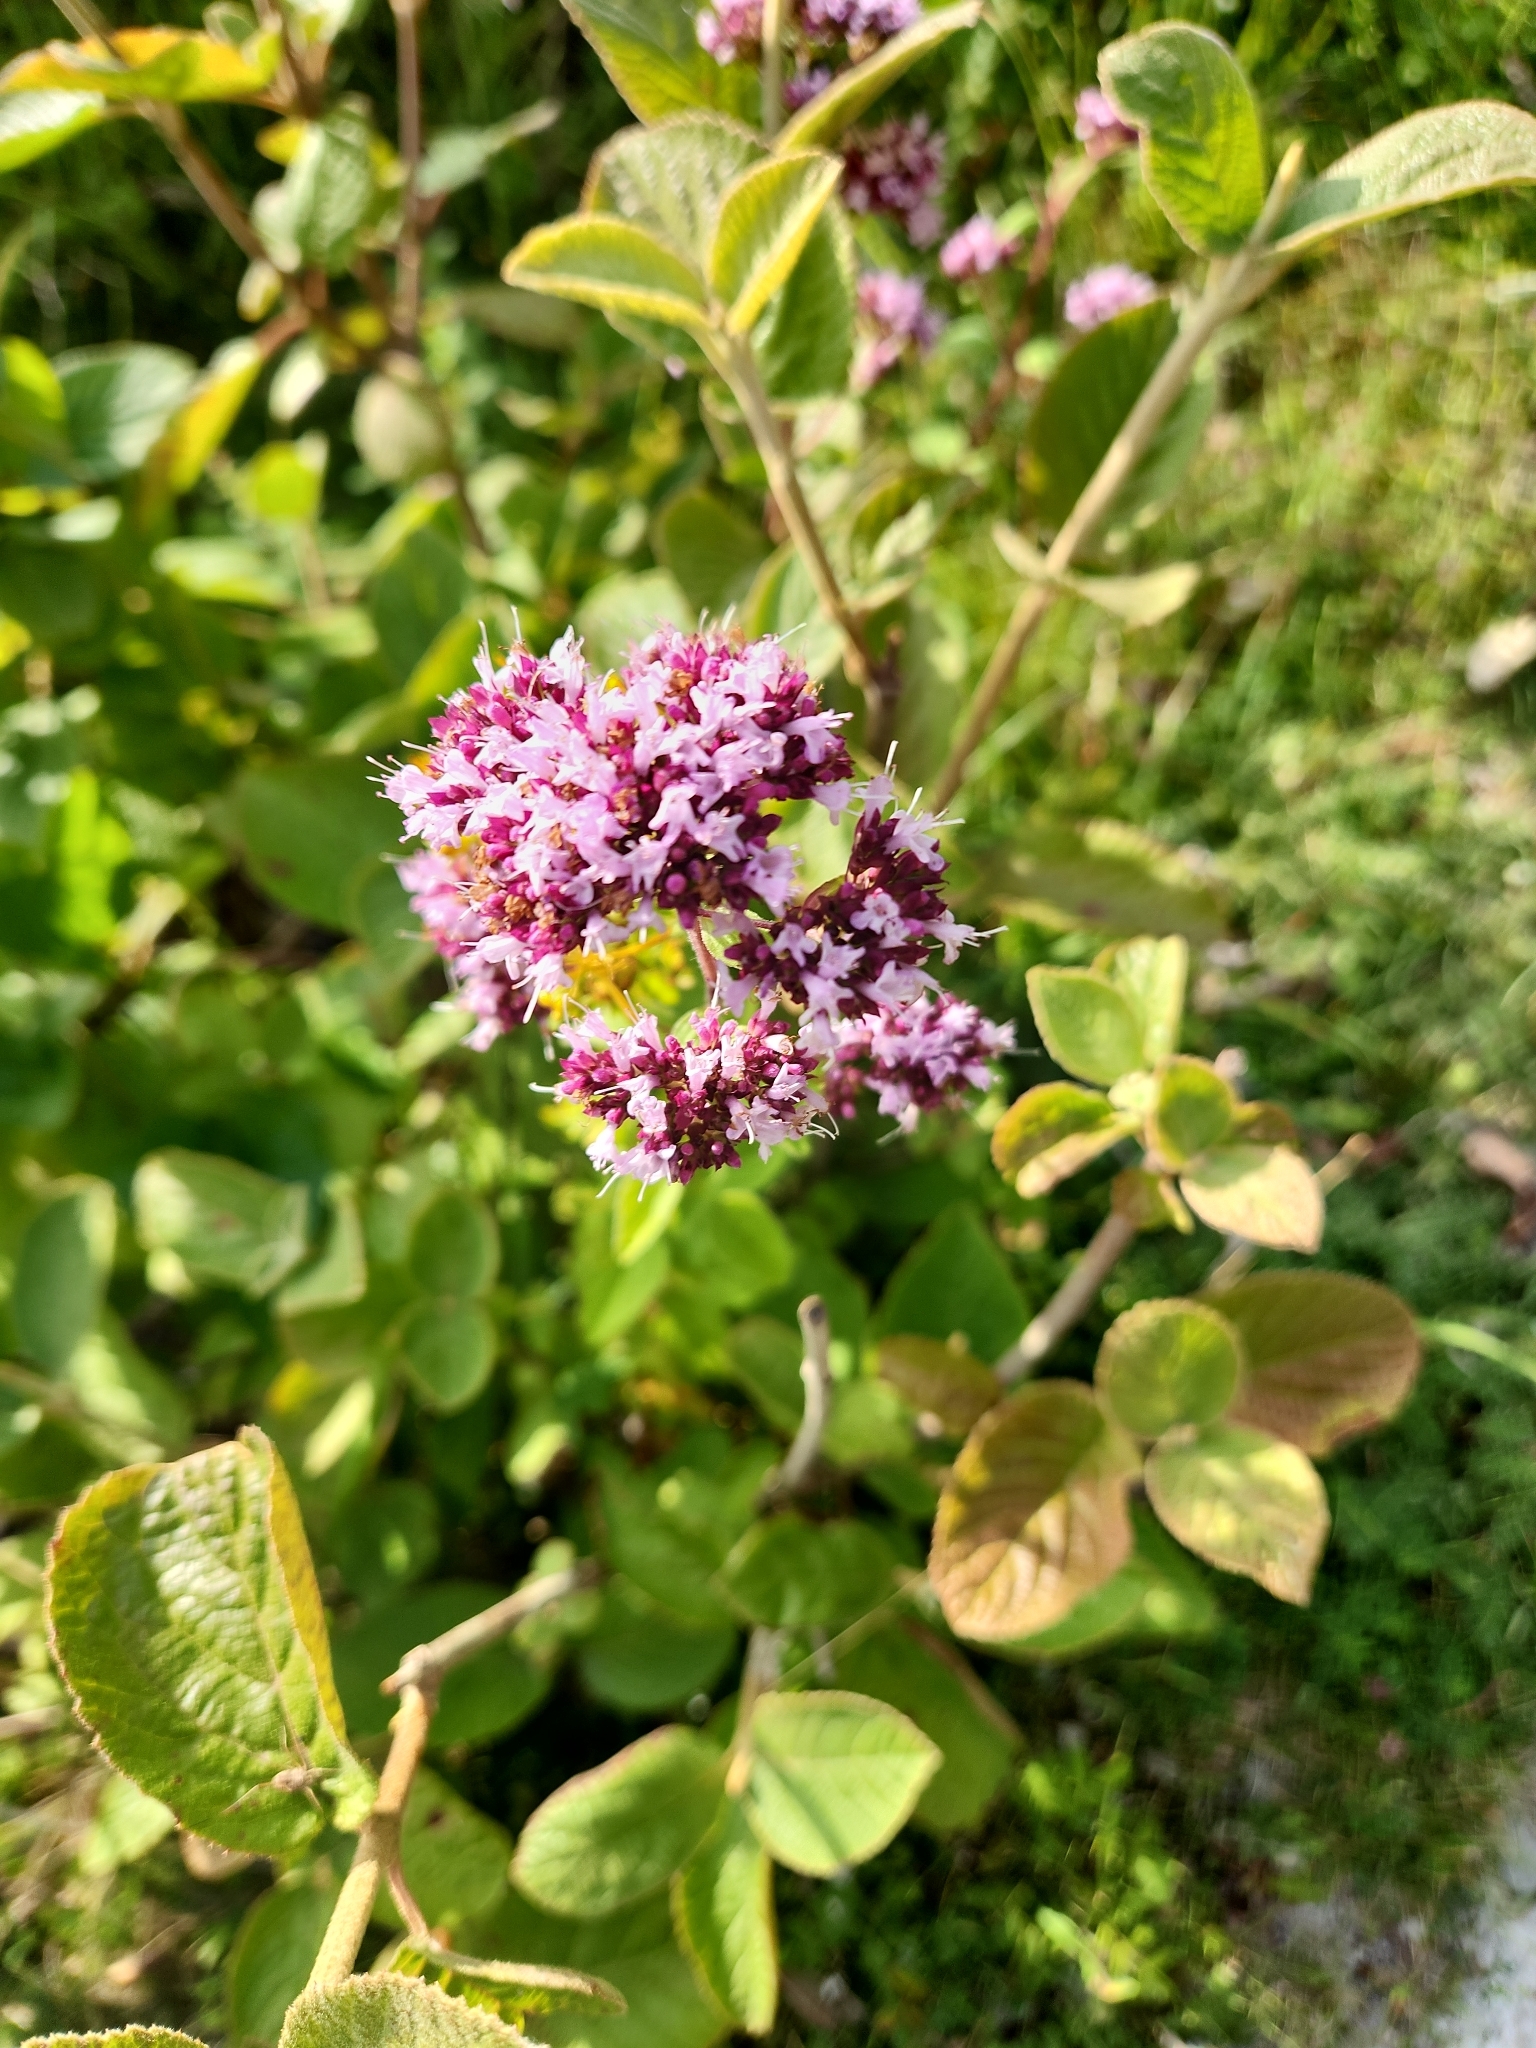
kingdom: Plantae
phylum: Tracheophyta
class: Magnoliopsida
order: Lamiales
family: Lamiaceae
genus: Origanum
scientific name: Origanum vulgare
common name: Wild marjoram
